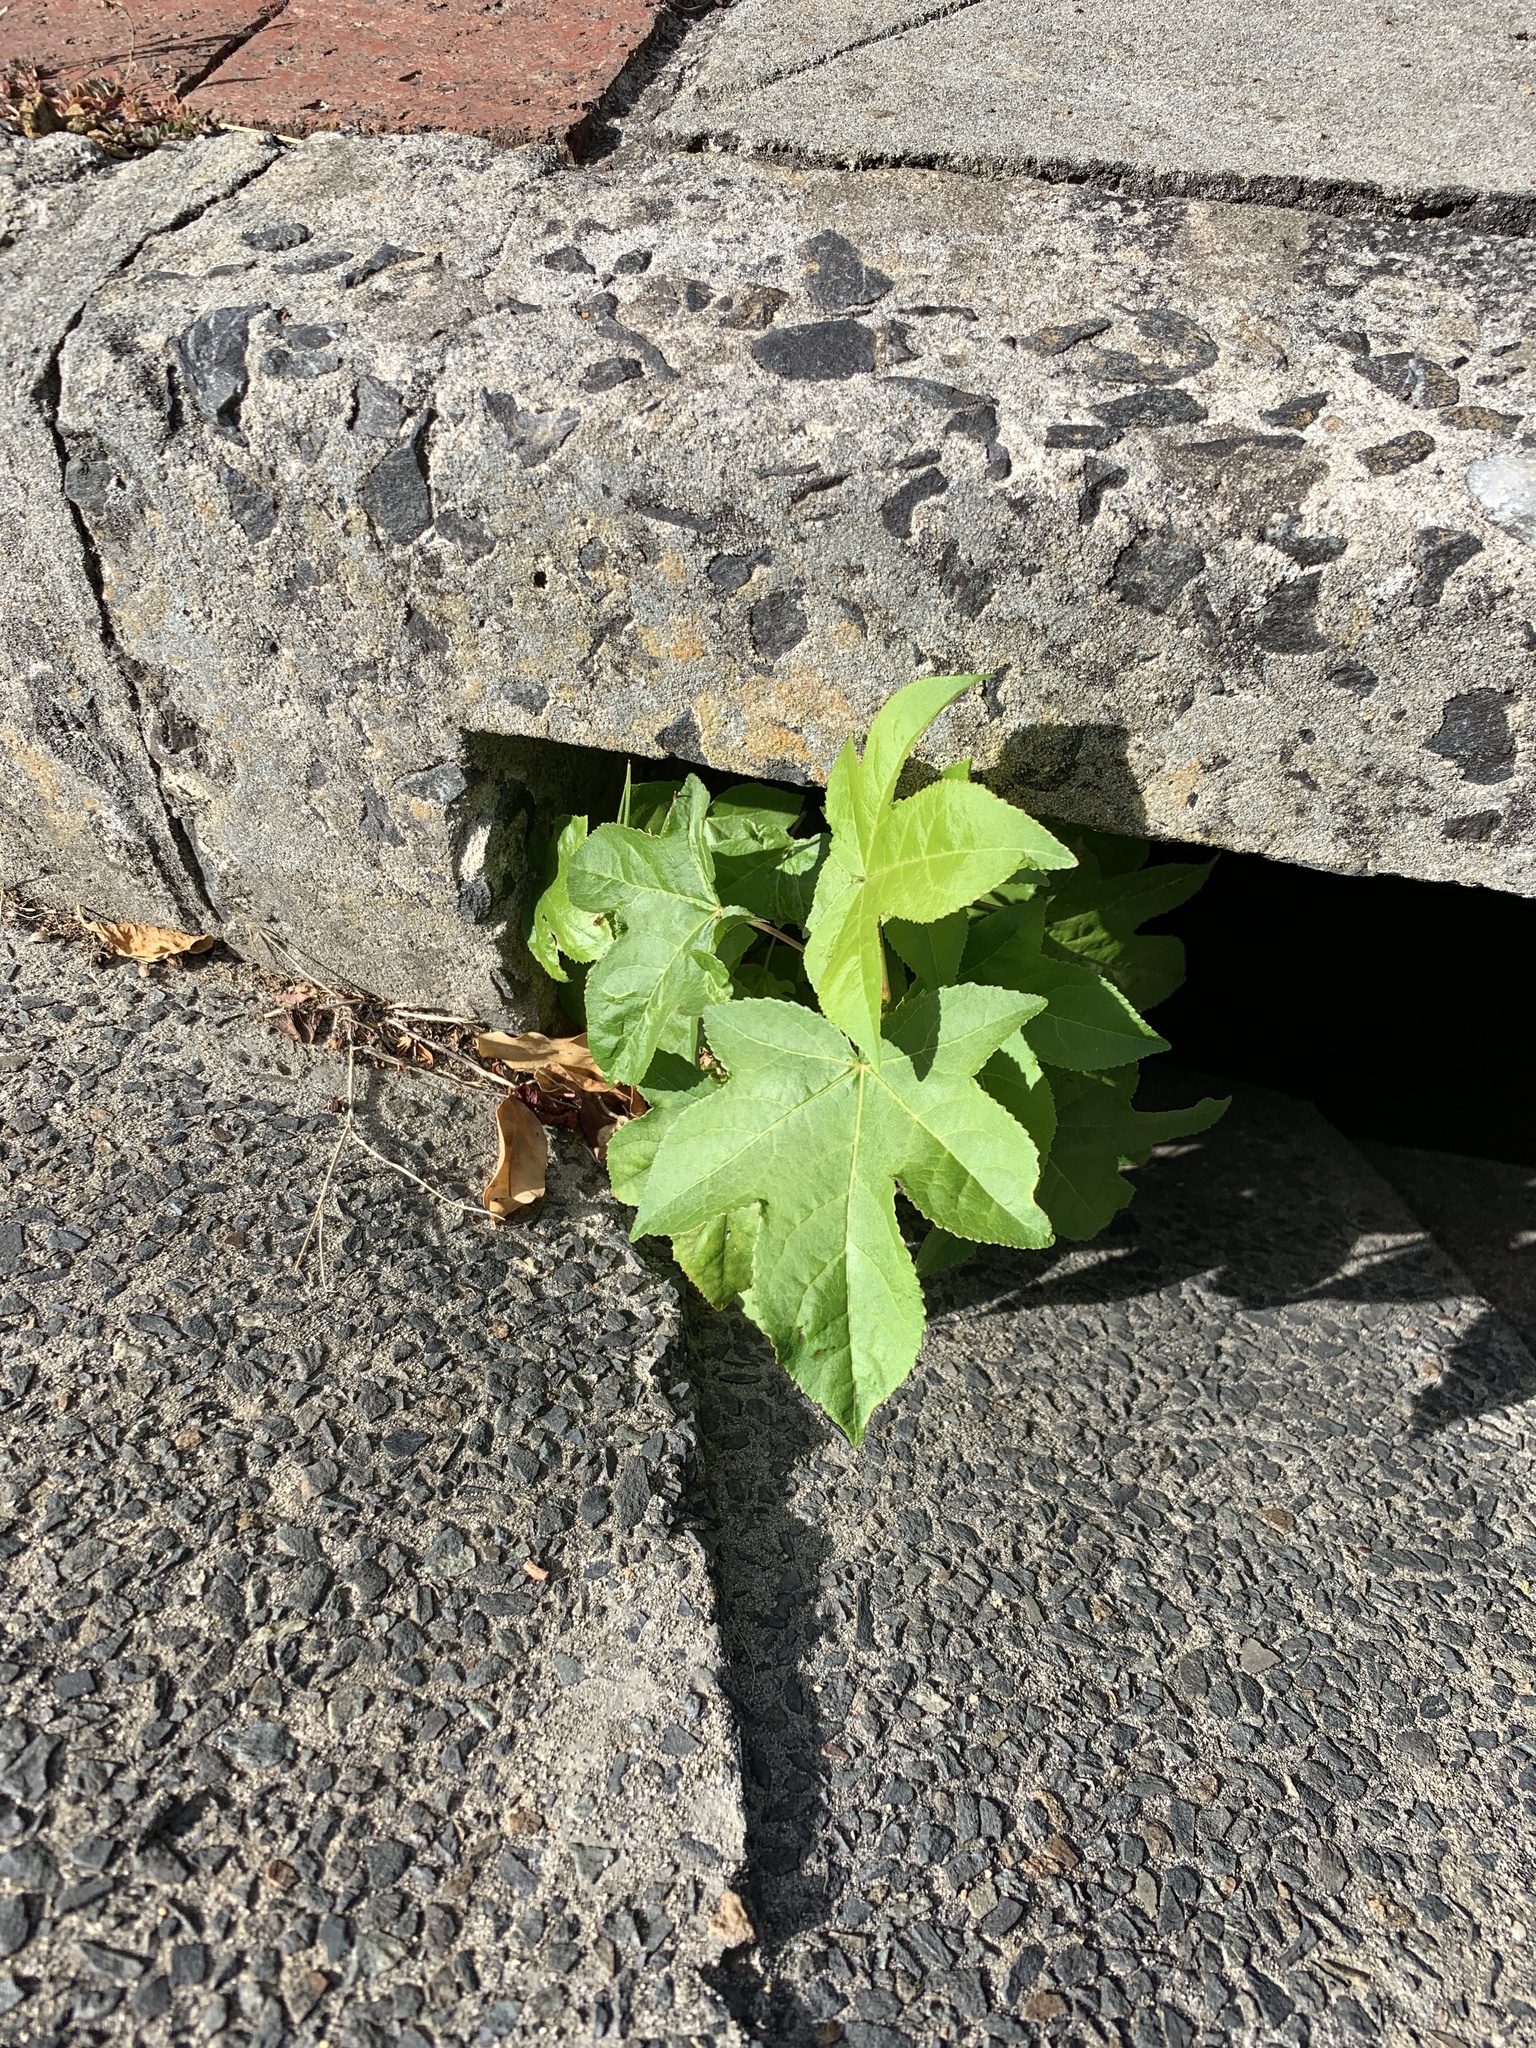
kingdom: Plantae
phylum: Tracheophyta
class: Magnoliopsida
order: Saxifragales
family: Altingiaceae
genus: Liquidambar
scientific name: Liquidambar styraciflua
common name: Sweet gum
